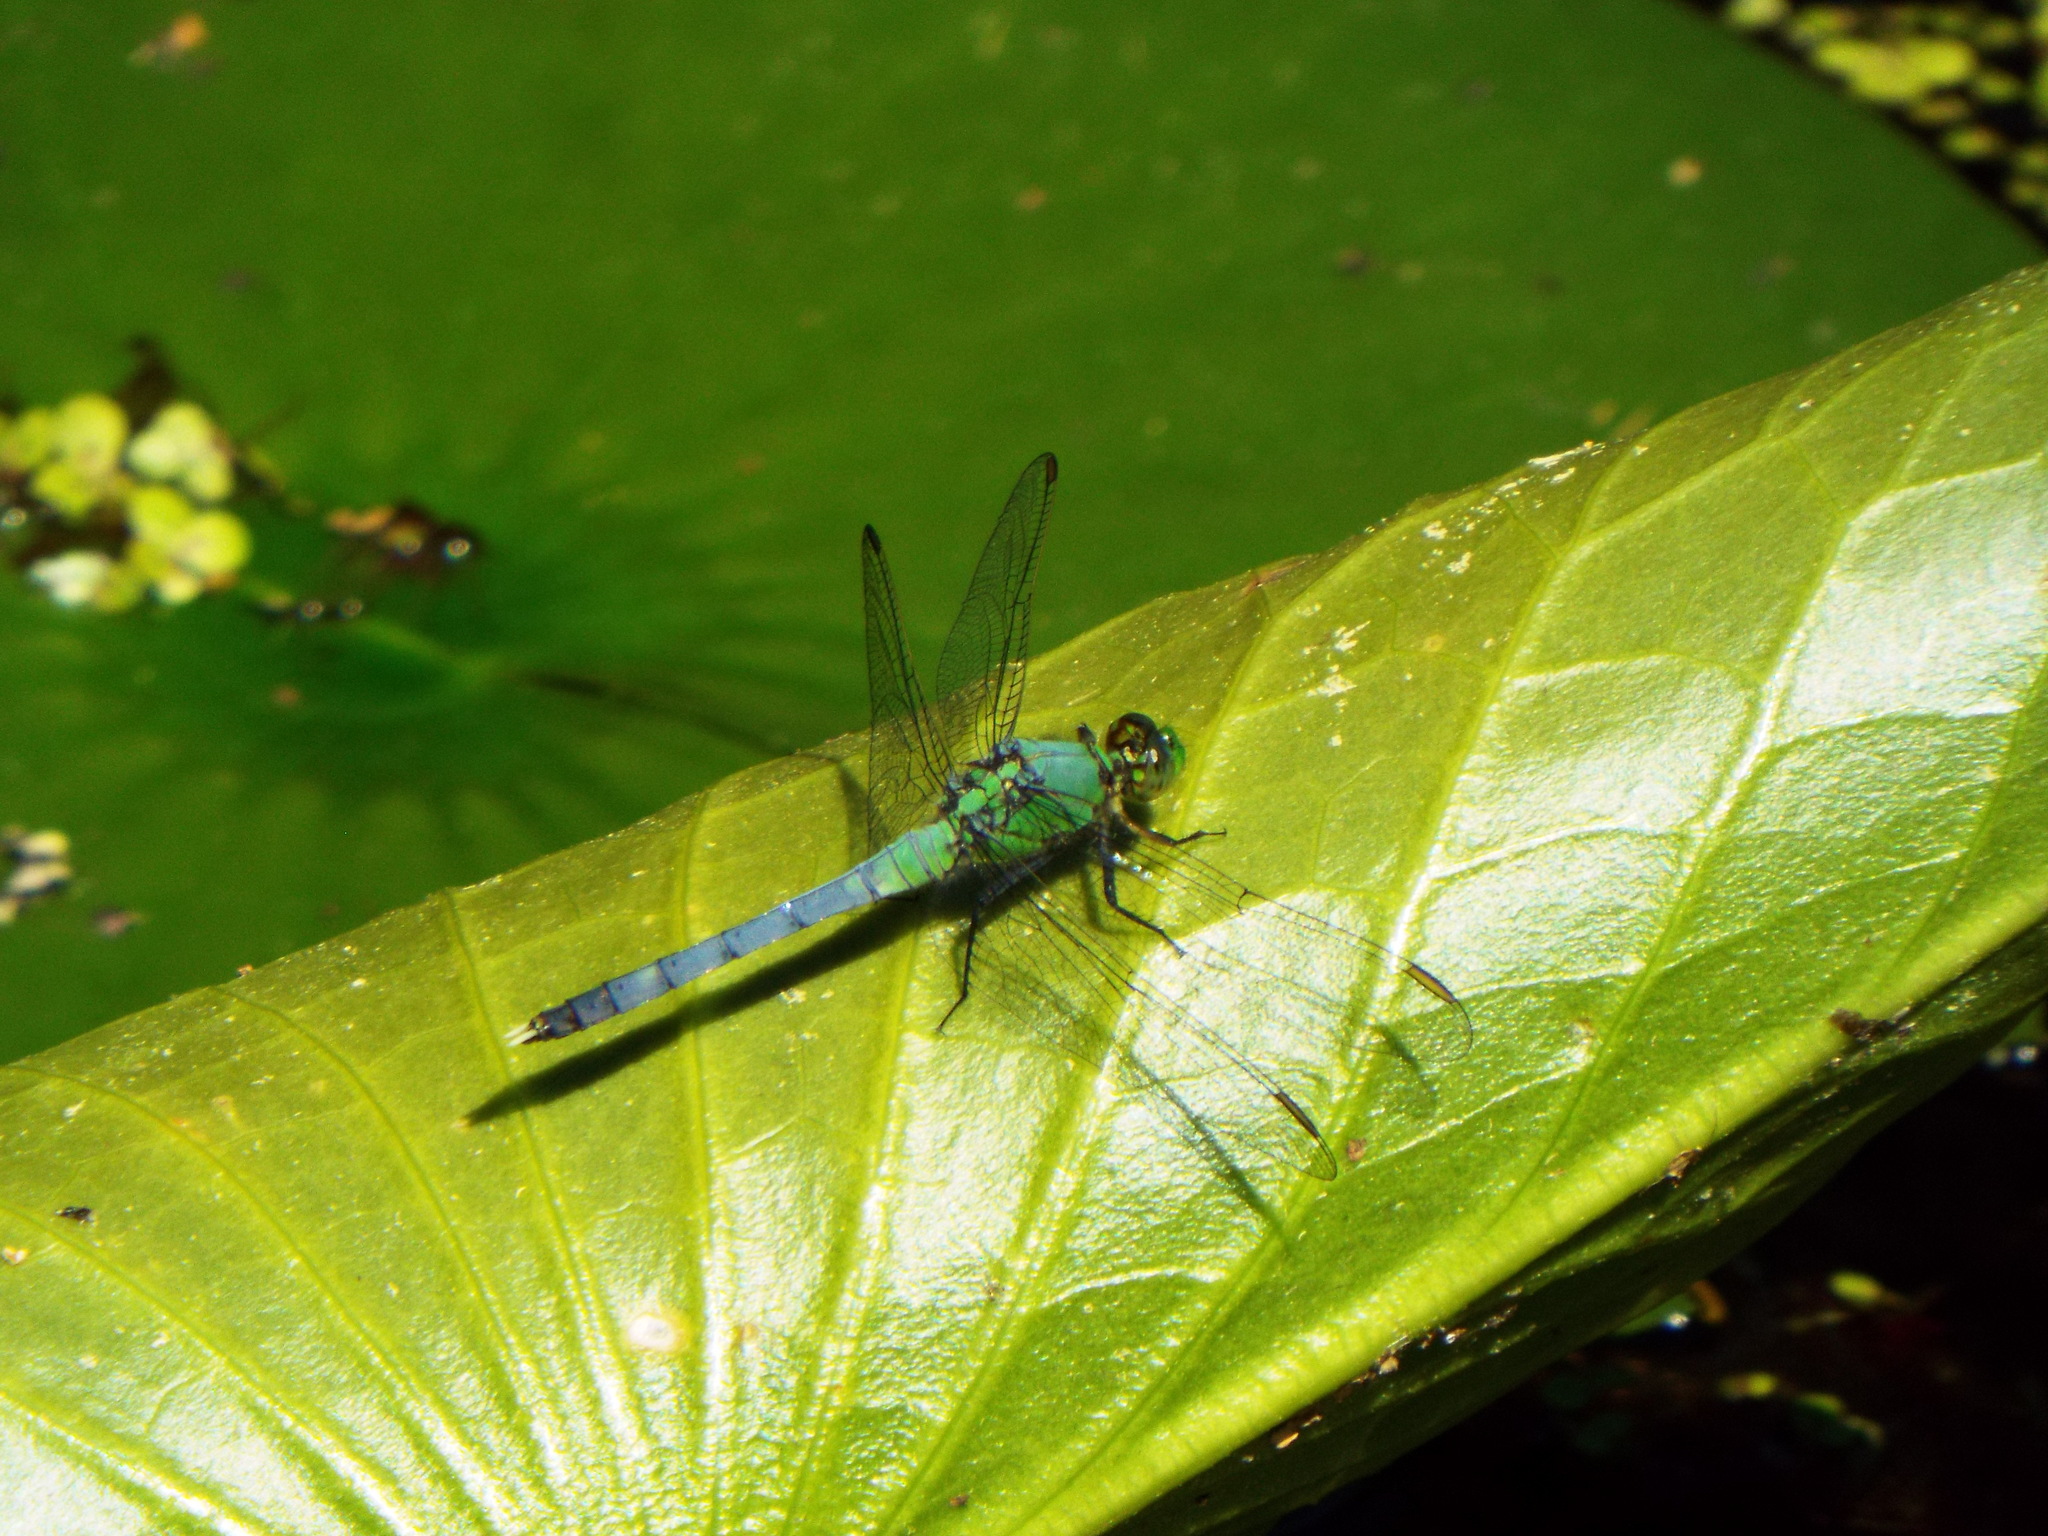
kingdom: Animalia
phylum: Arthropoda
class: Insecta
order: Odonata
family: Libellulidae
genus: Erythemis
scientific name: Erythemis simplicicollis
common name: Eastern pondhawk
